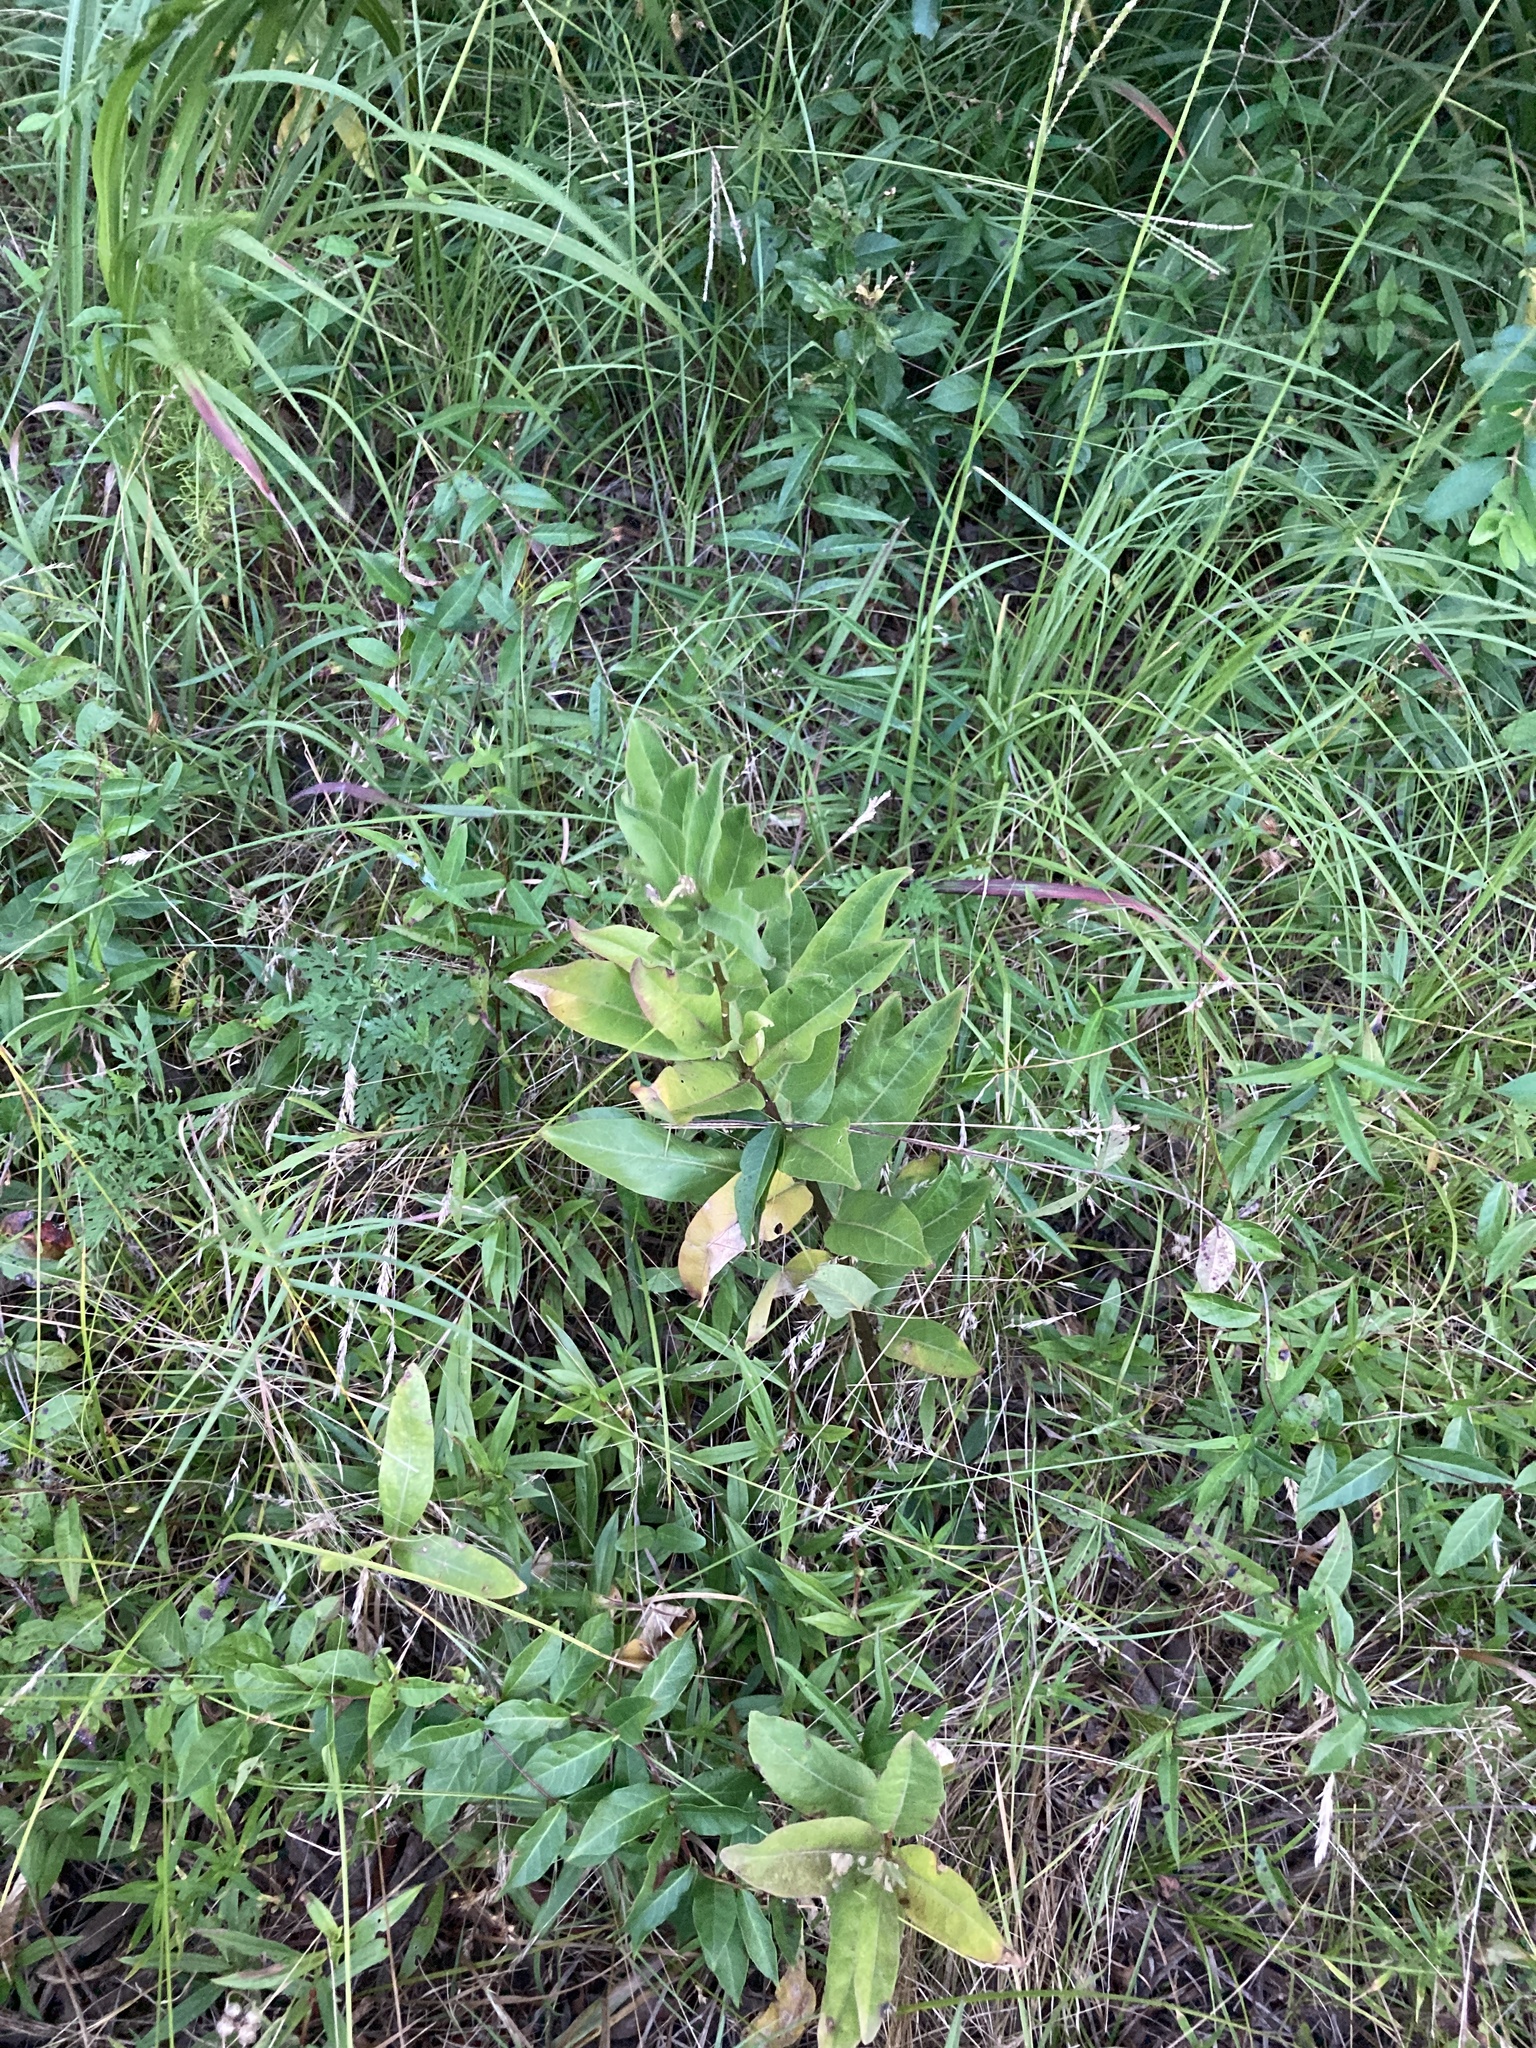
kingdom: Plantae
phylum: Tracheophyta
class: Magnoliopsida
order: Gentianales
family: Apocynaceae
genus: Asclepias
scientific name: Asclepias viridis
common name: Antelope-horns
